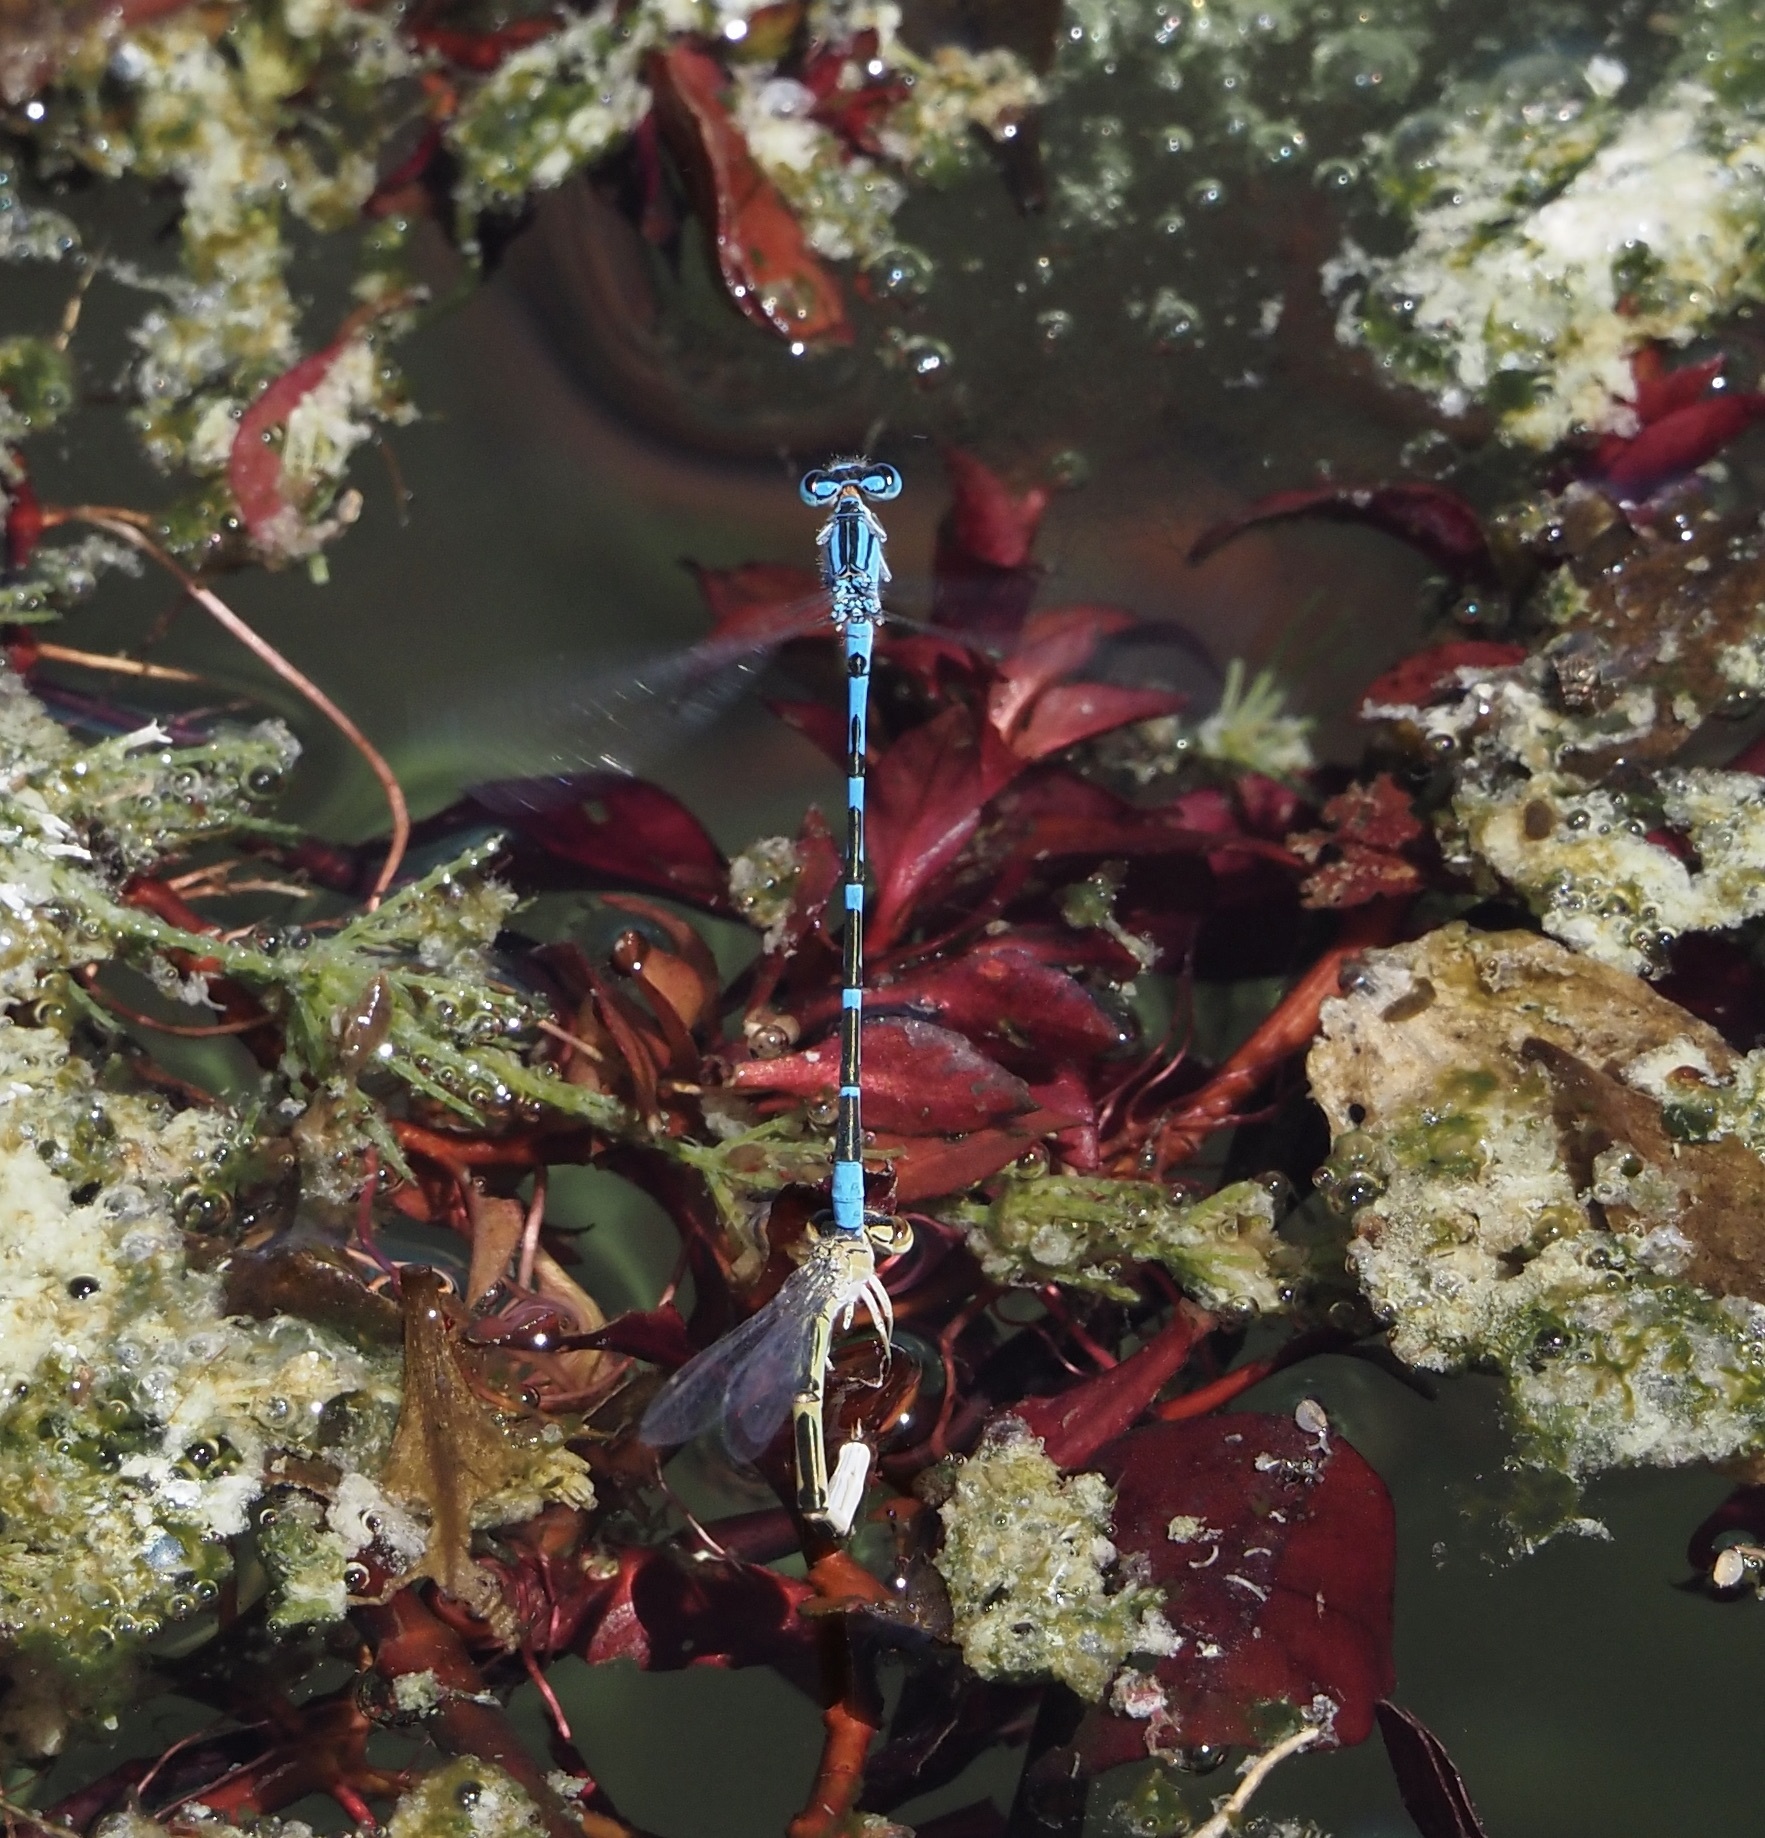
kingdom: Animalia
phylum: Arthropoda
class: Insecta
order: Odonata
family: Coenagrionidae
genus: Enallagma
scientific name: Enallagma praevarum
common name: Arroyo bluet
